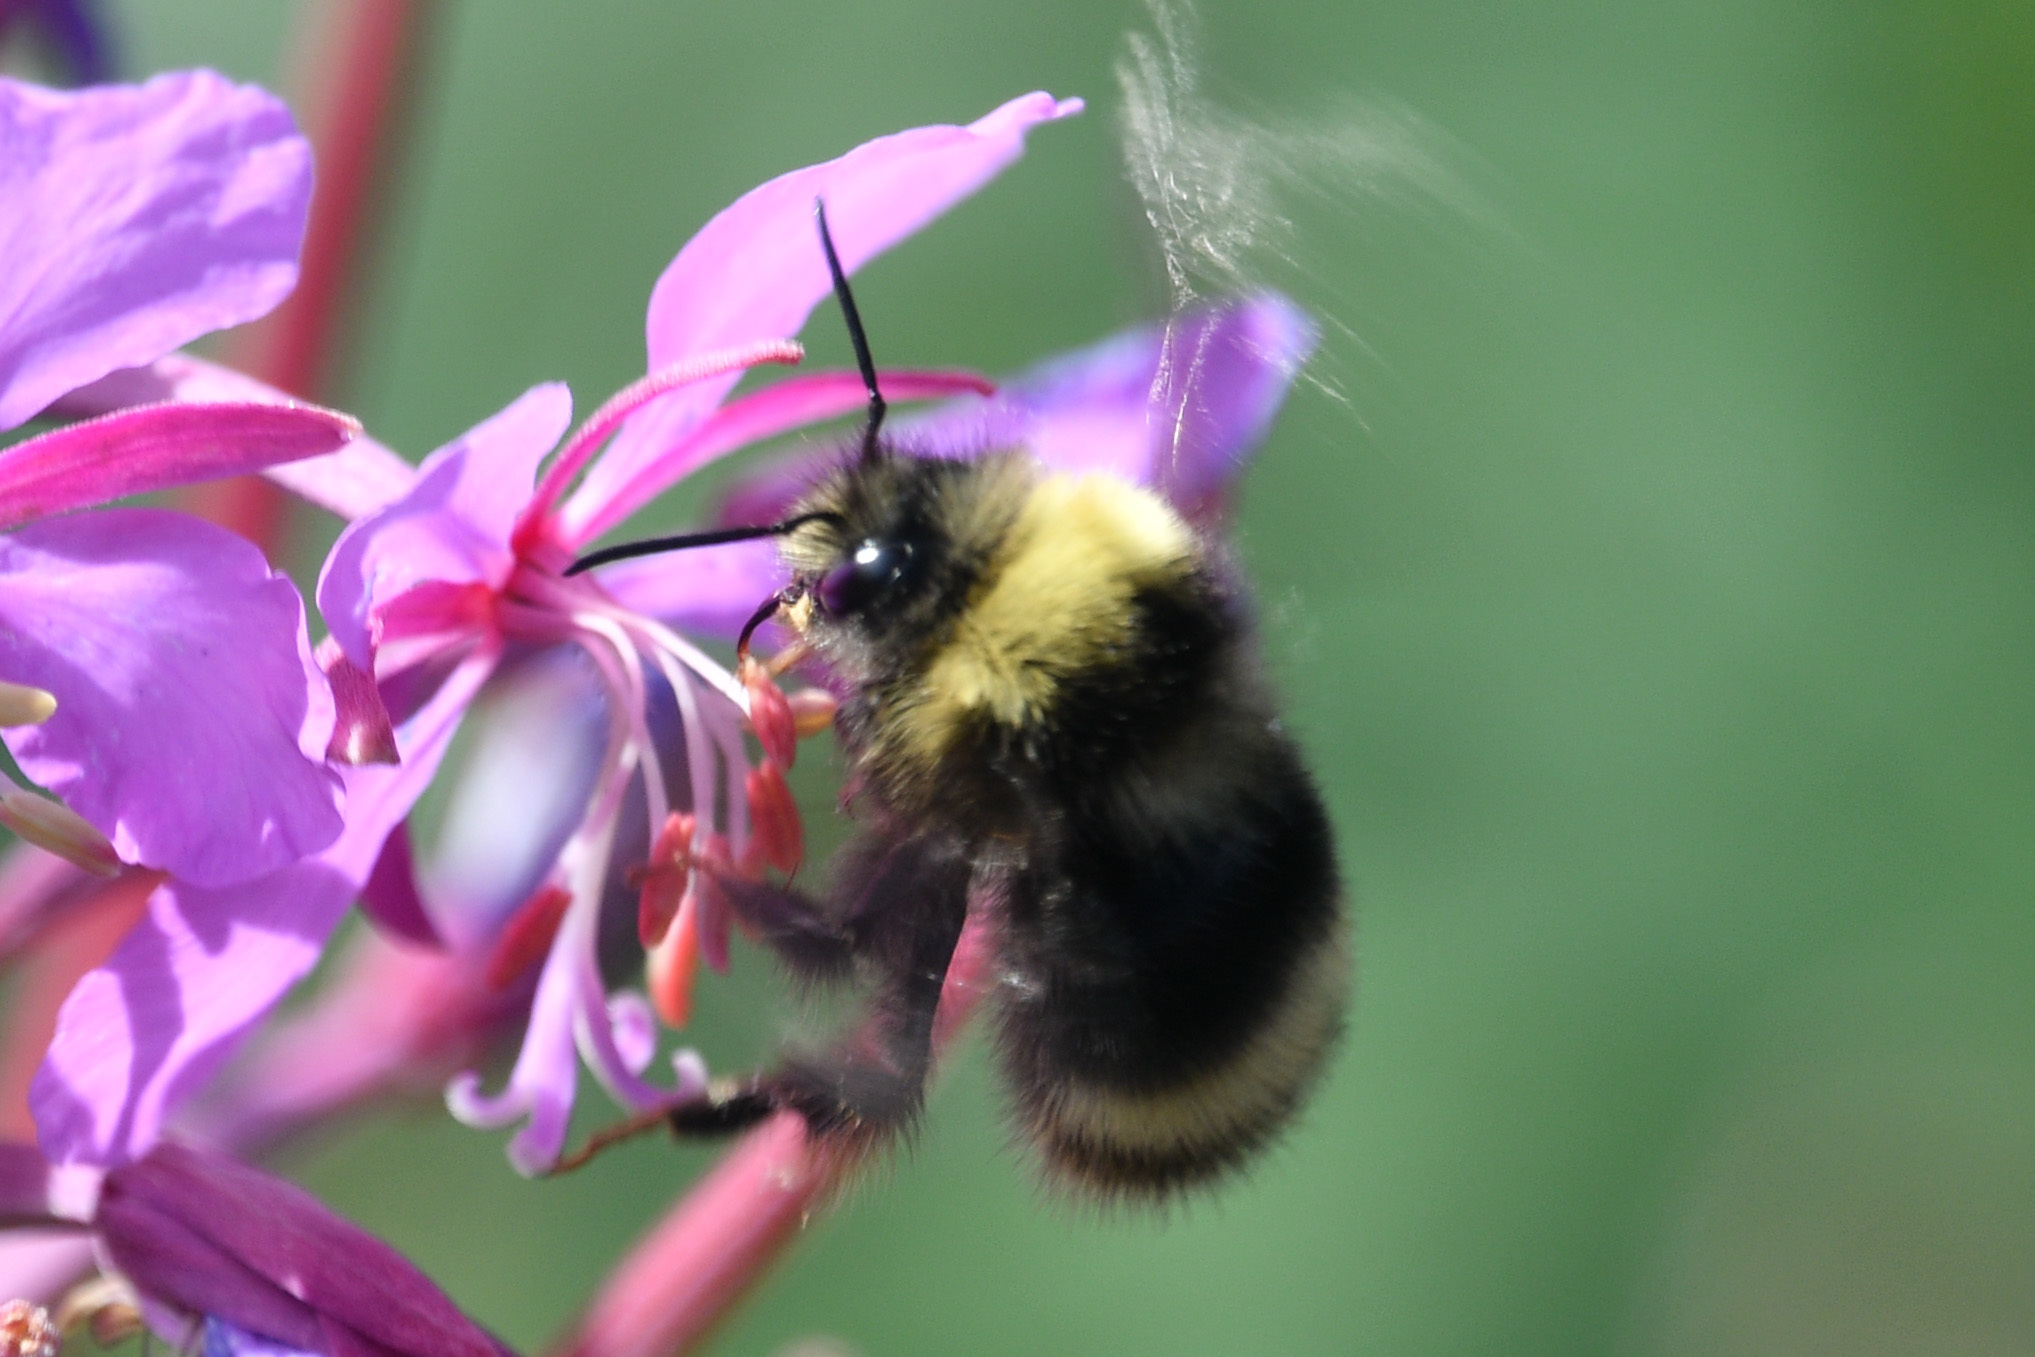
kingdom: Animalia
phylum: Arthropoda
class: Insecta
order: Hymenoptera
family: Apidae
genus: Bombus
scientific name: Bombus mckayi
